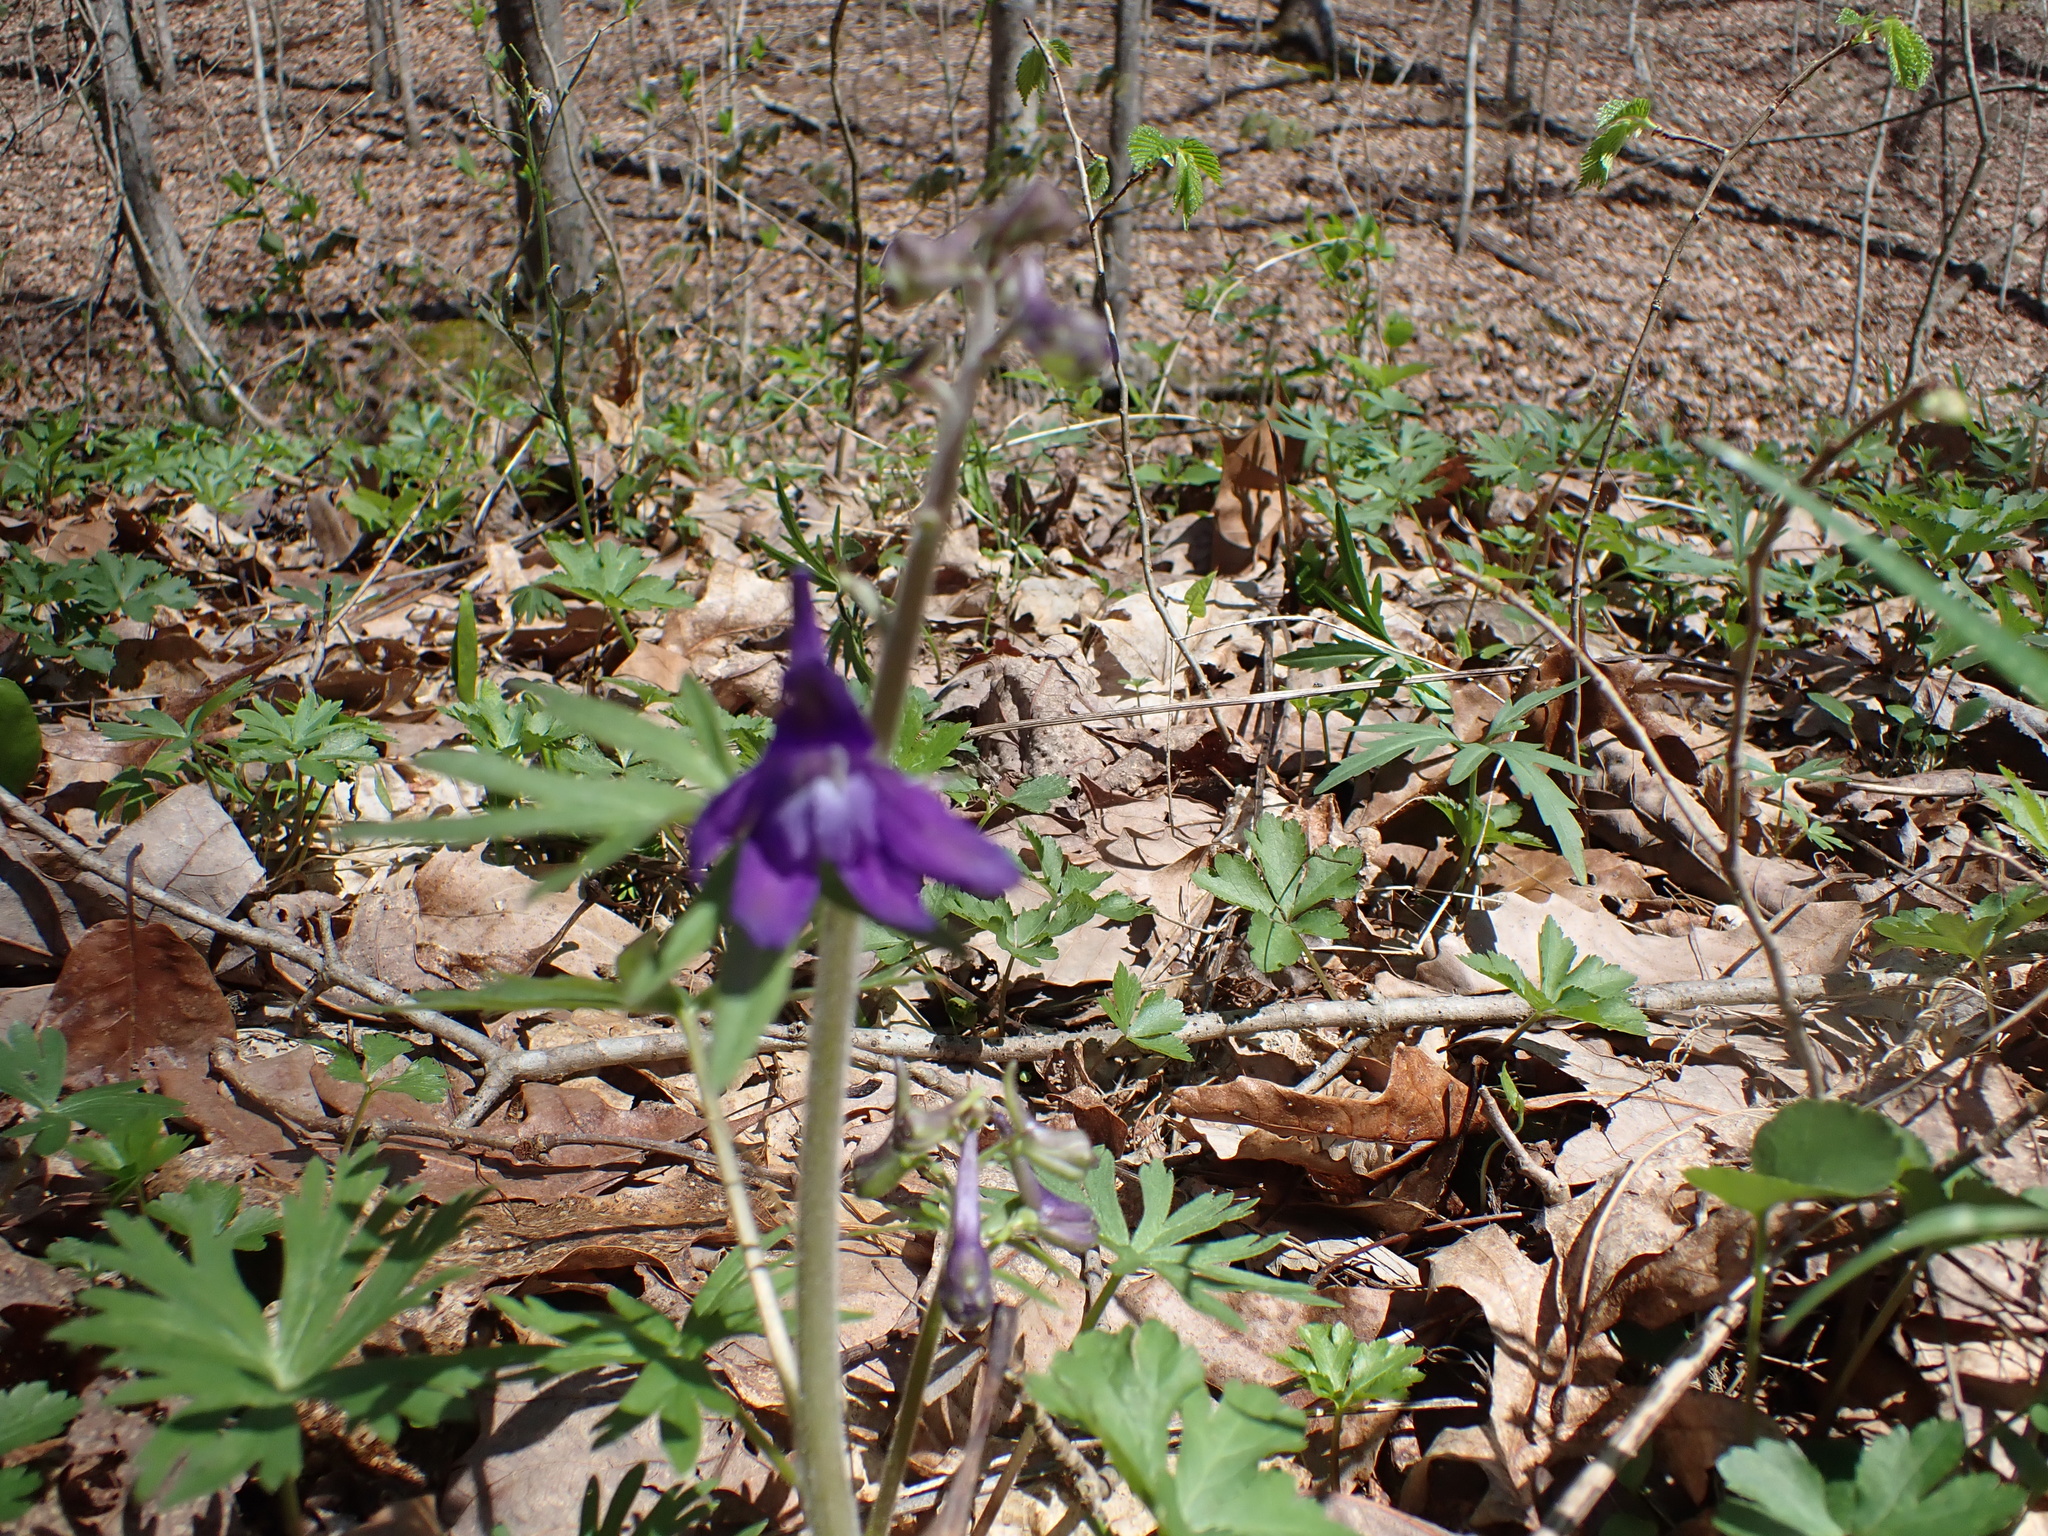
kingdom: Plantae
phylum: Tracheophyta
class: Magnoliopsida
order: Ranunculales
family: Ranunculaceae
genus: Delphinium
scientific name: Delphinium tricorne
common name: Dwarf larkspur
